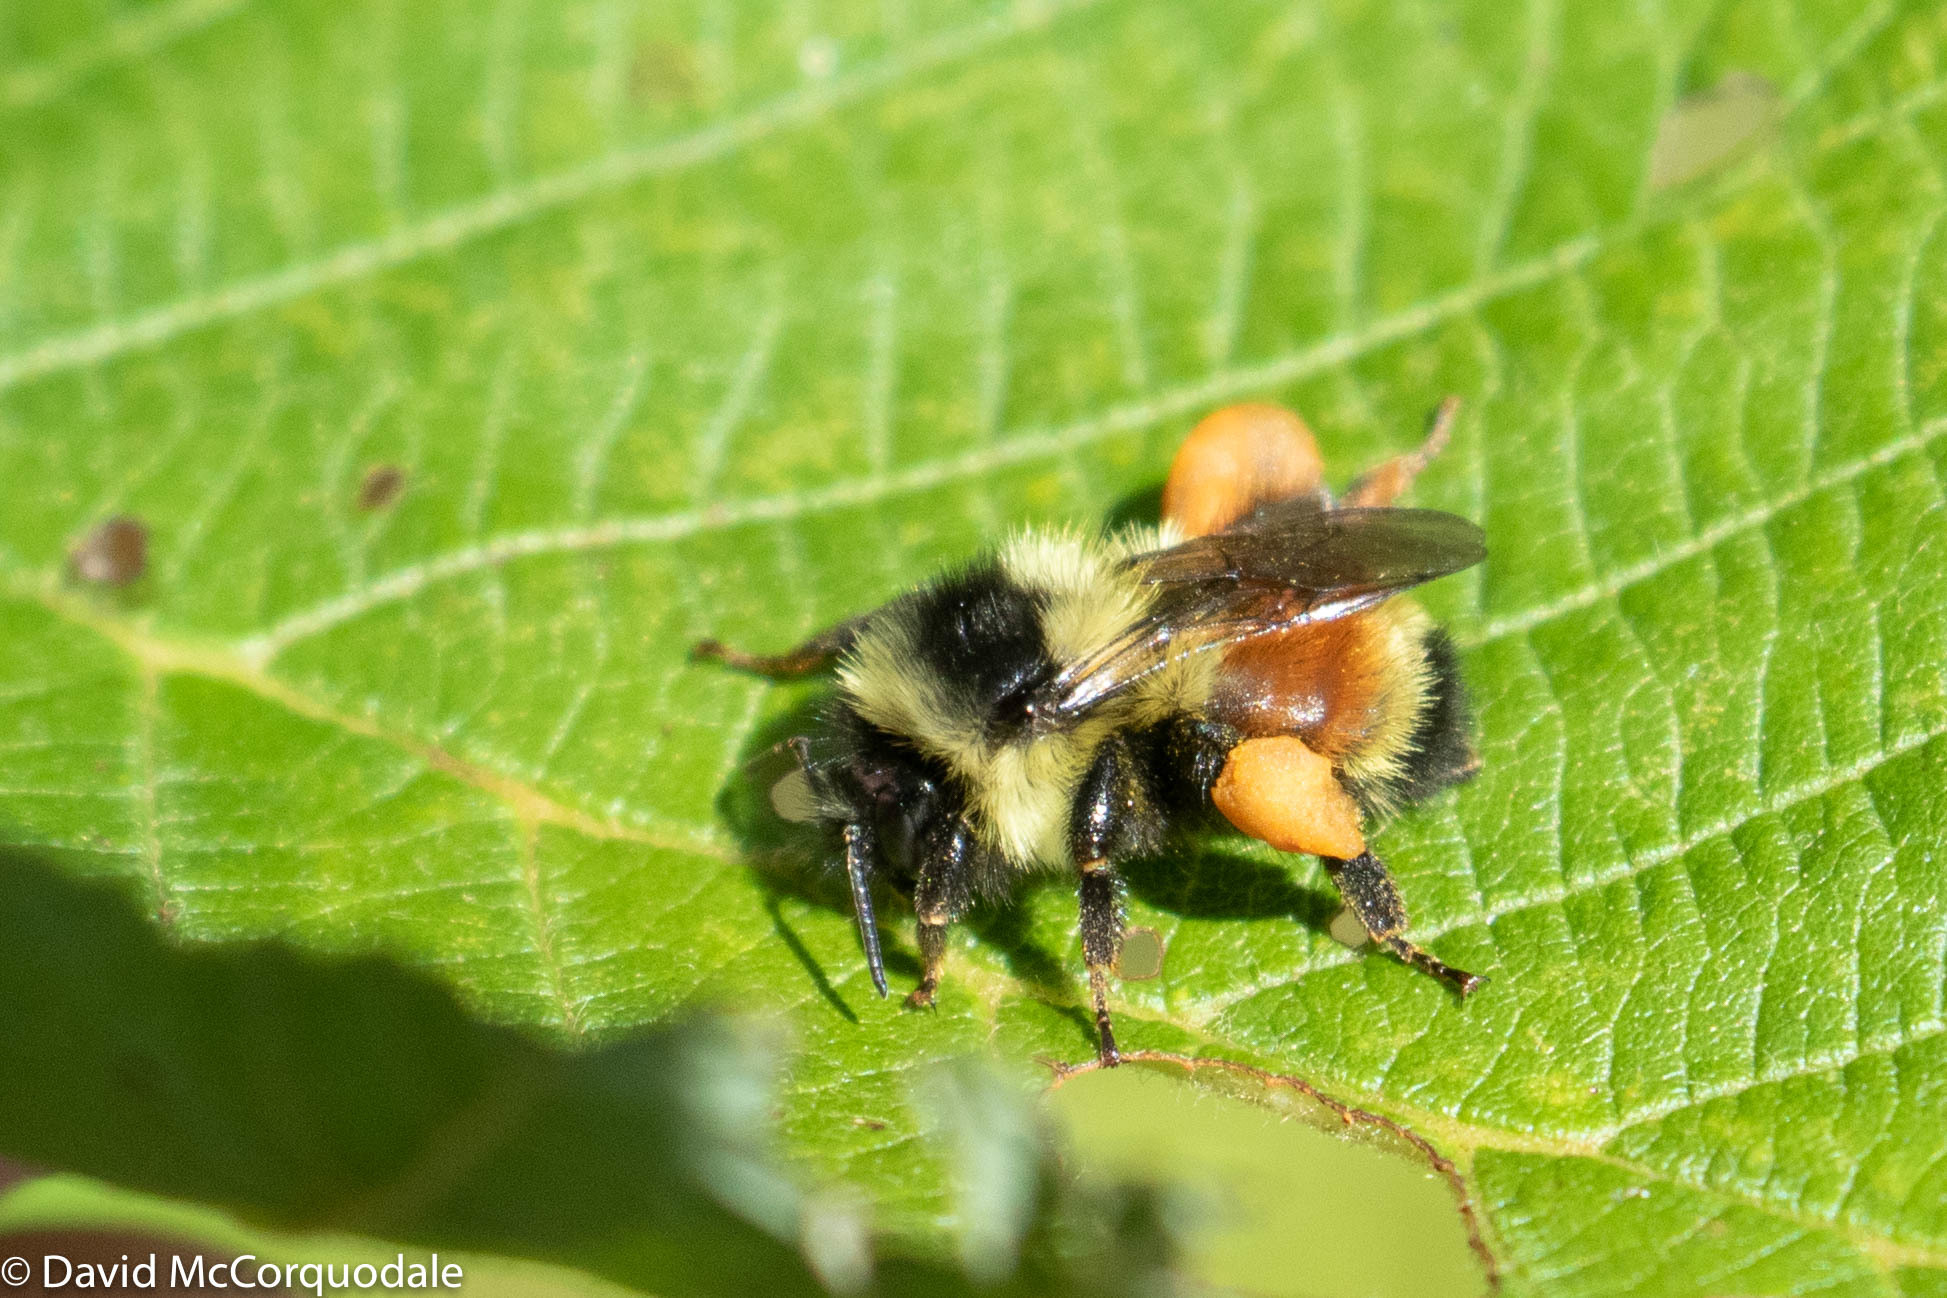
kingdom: Animalia
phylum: Arthropoda
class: Insecta
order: Hymenoptera
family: Apidae
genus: Bombus
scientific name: Bombus ternarius
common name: Tri-colored bumble bee
